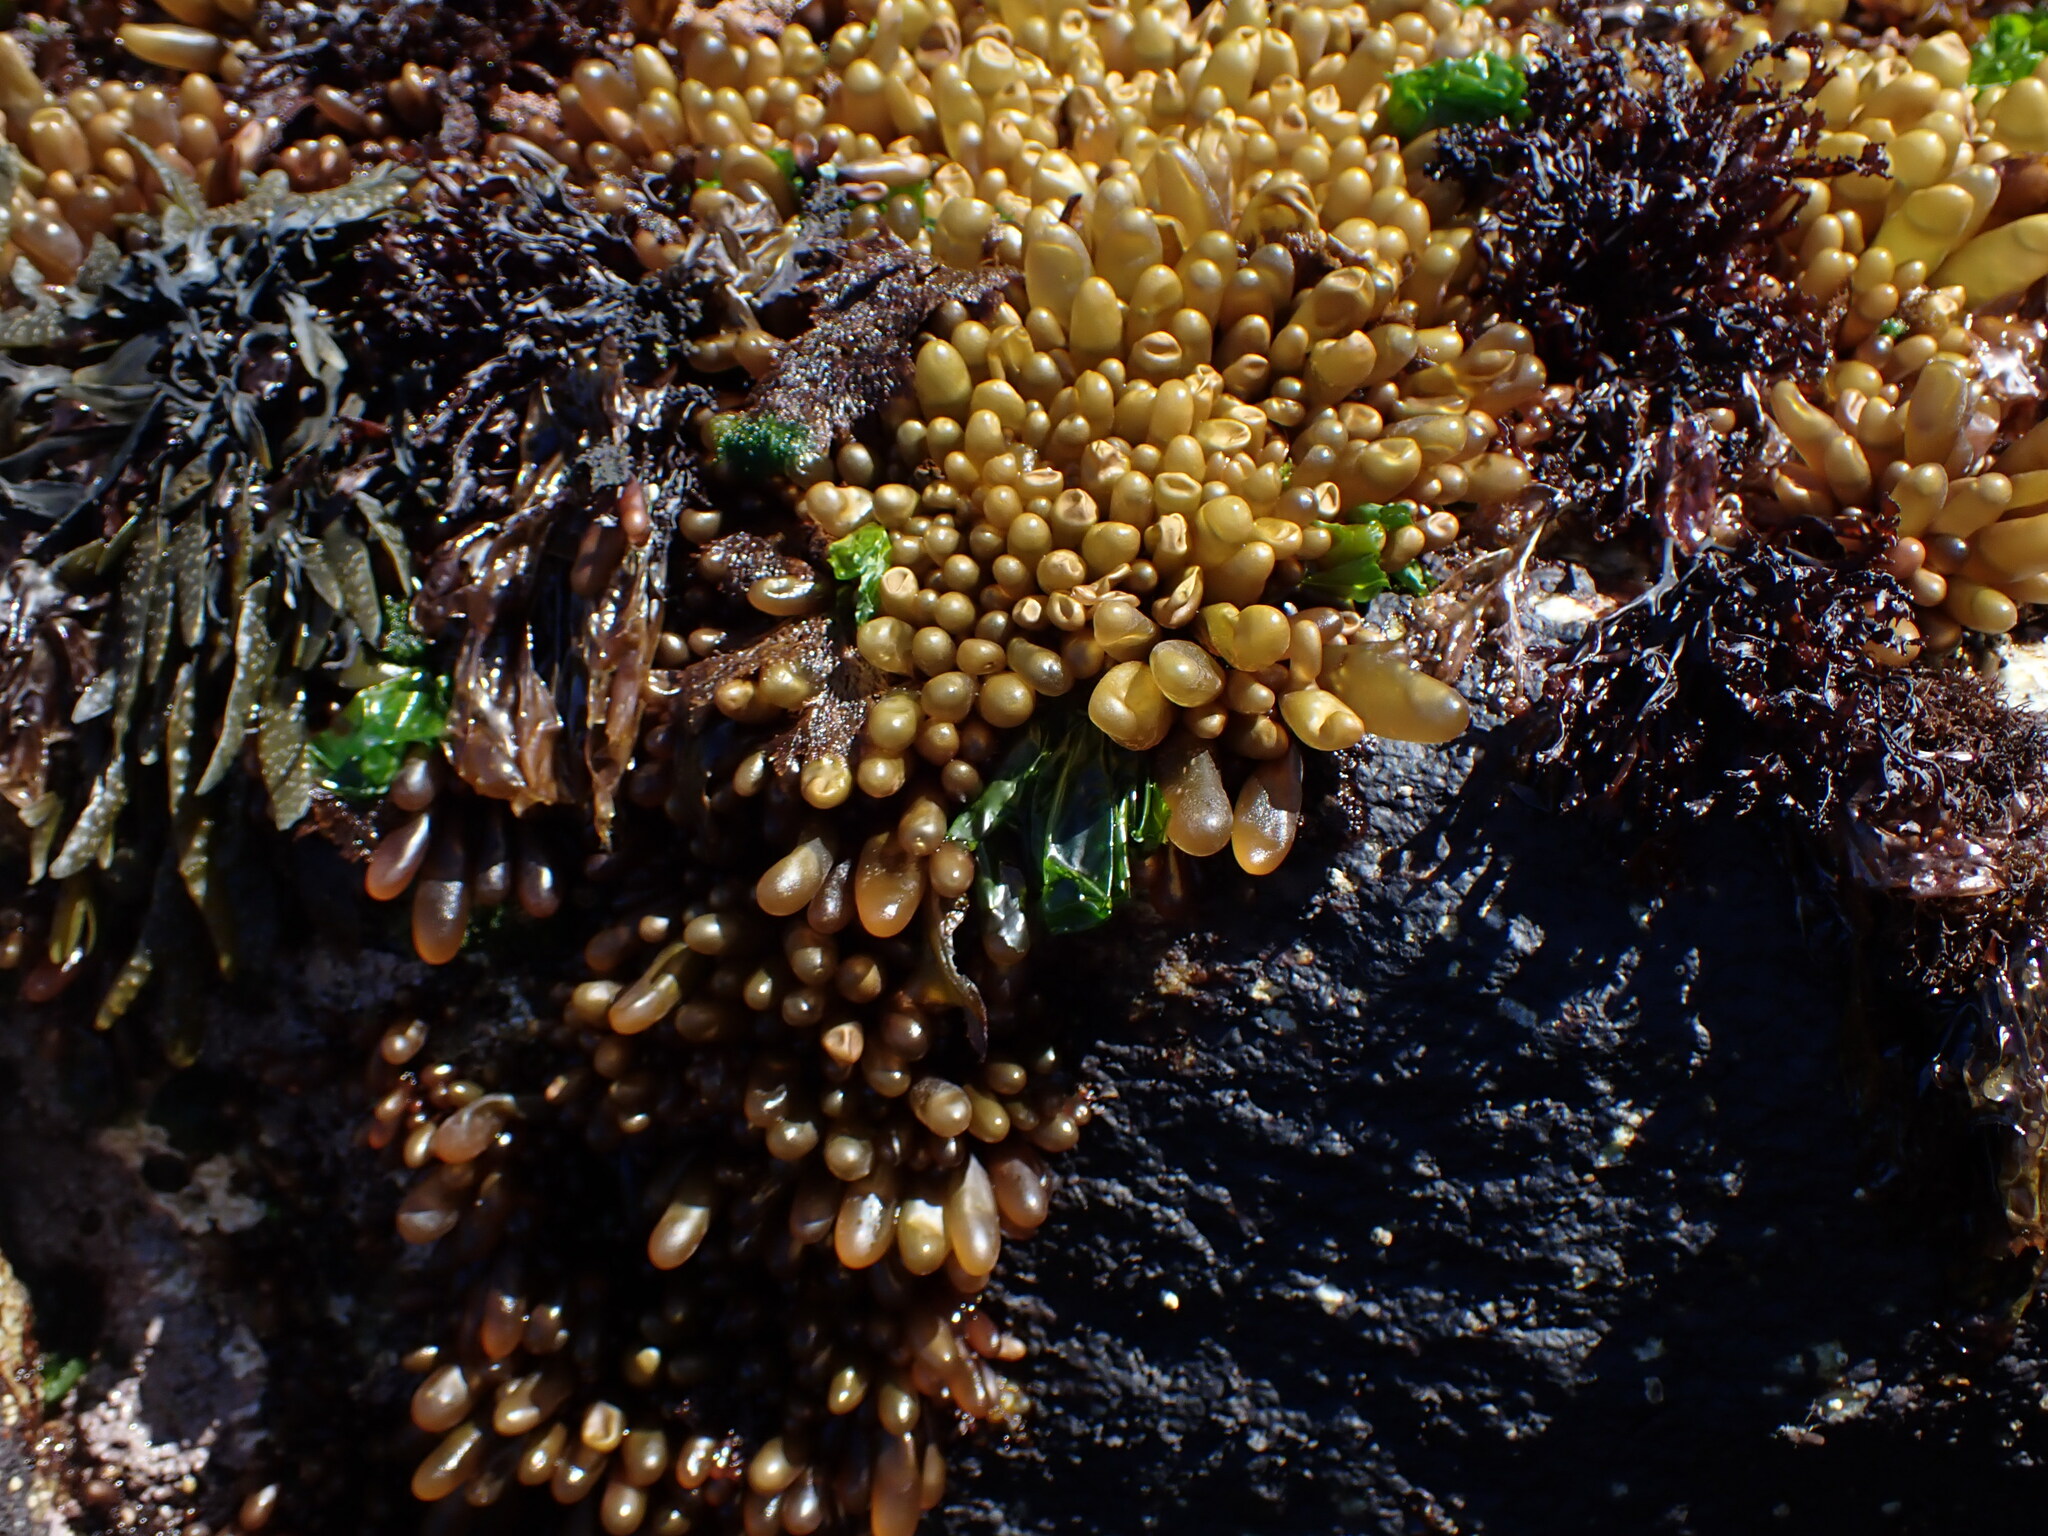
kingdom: Plantae
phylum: Rhodophyta
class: Florideophyceae
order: Palmariales
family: Palmariaceae
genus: Halosaccion
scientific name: Halosaccion glandiforme
